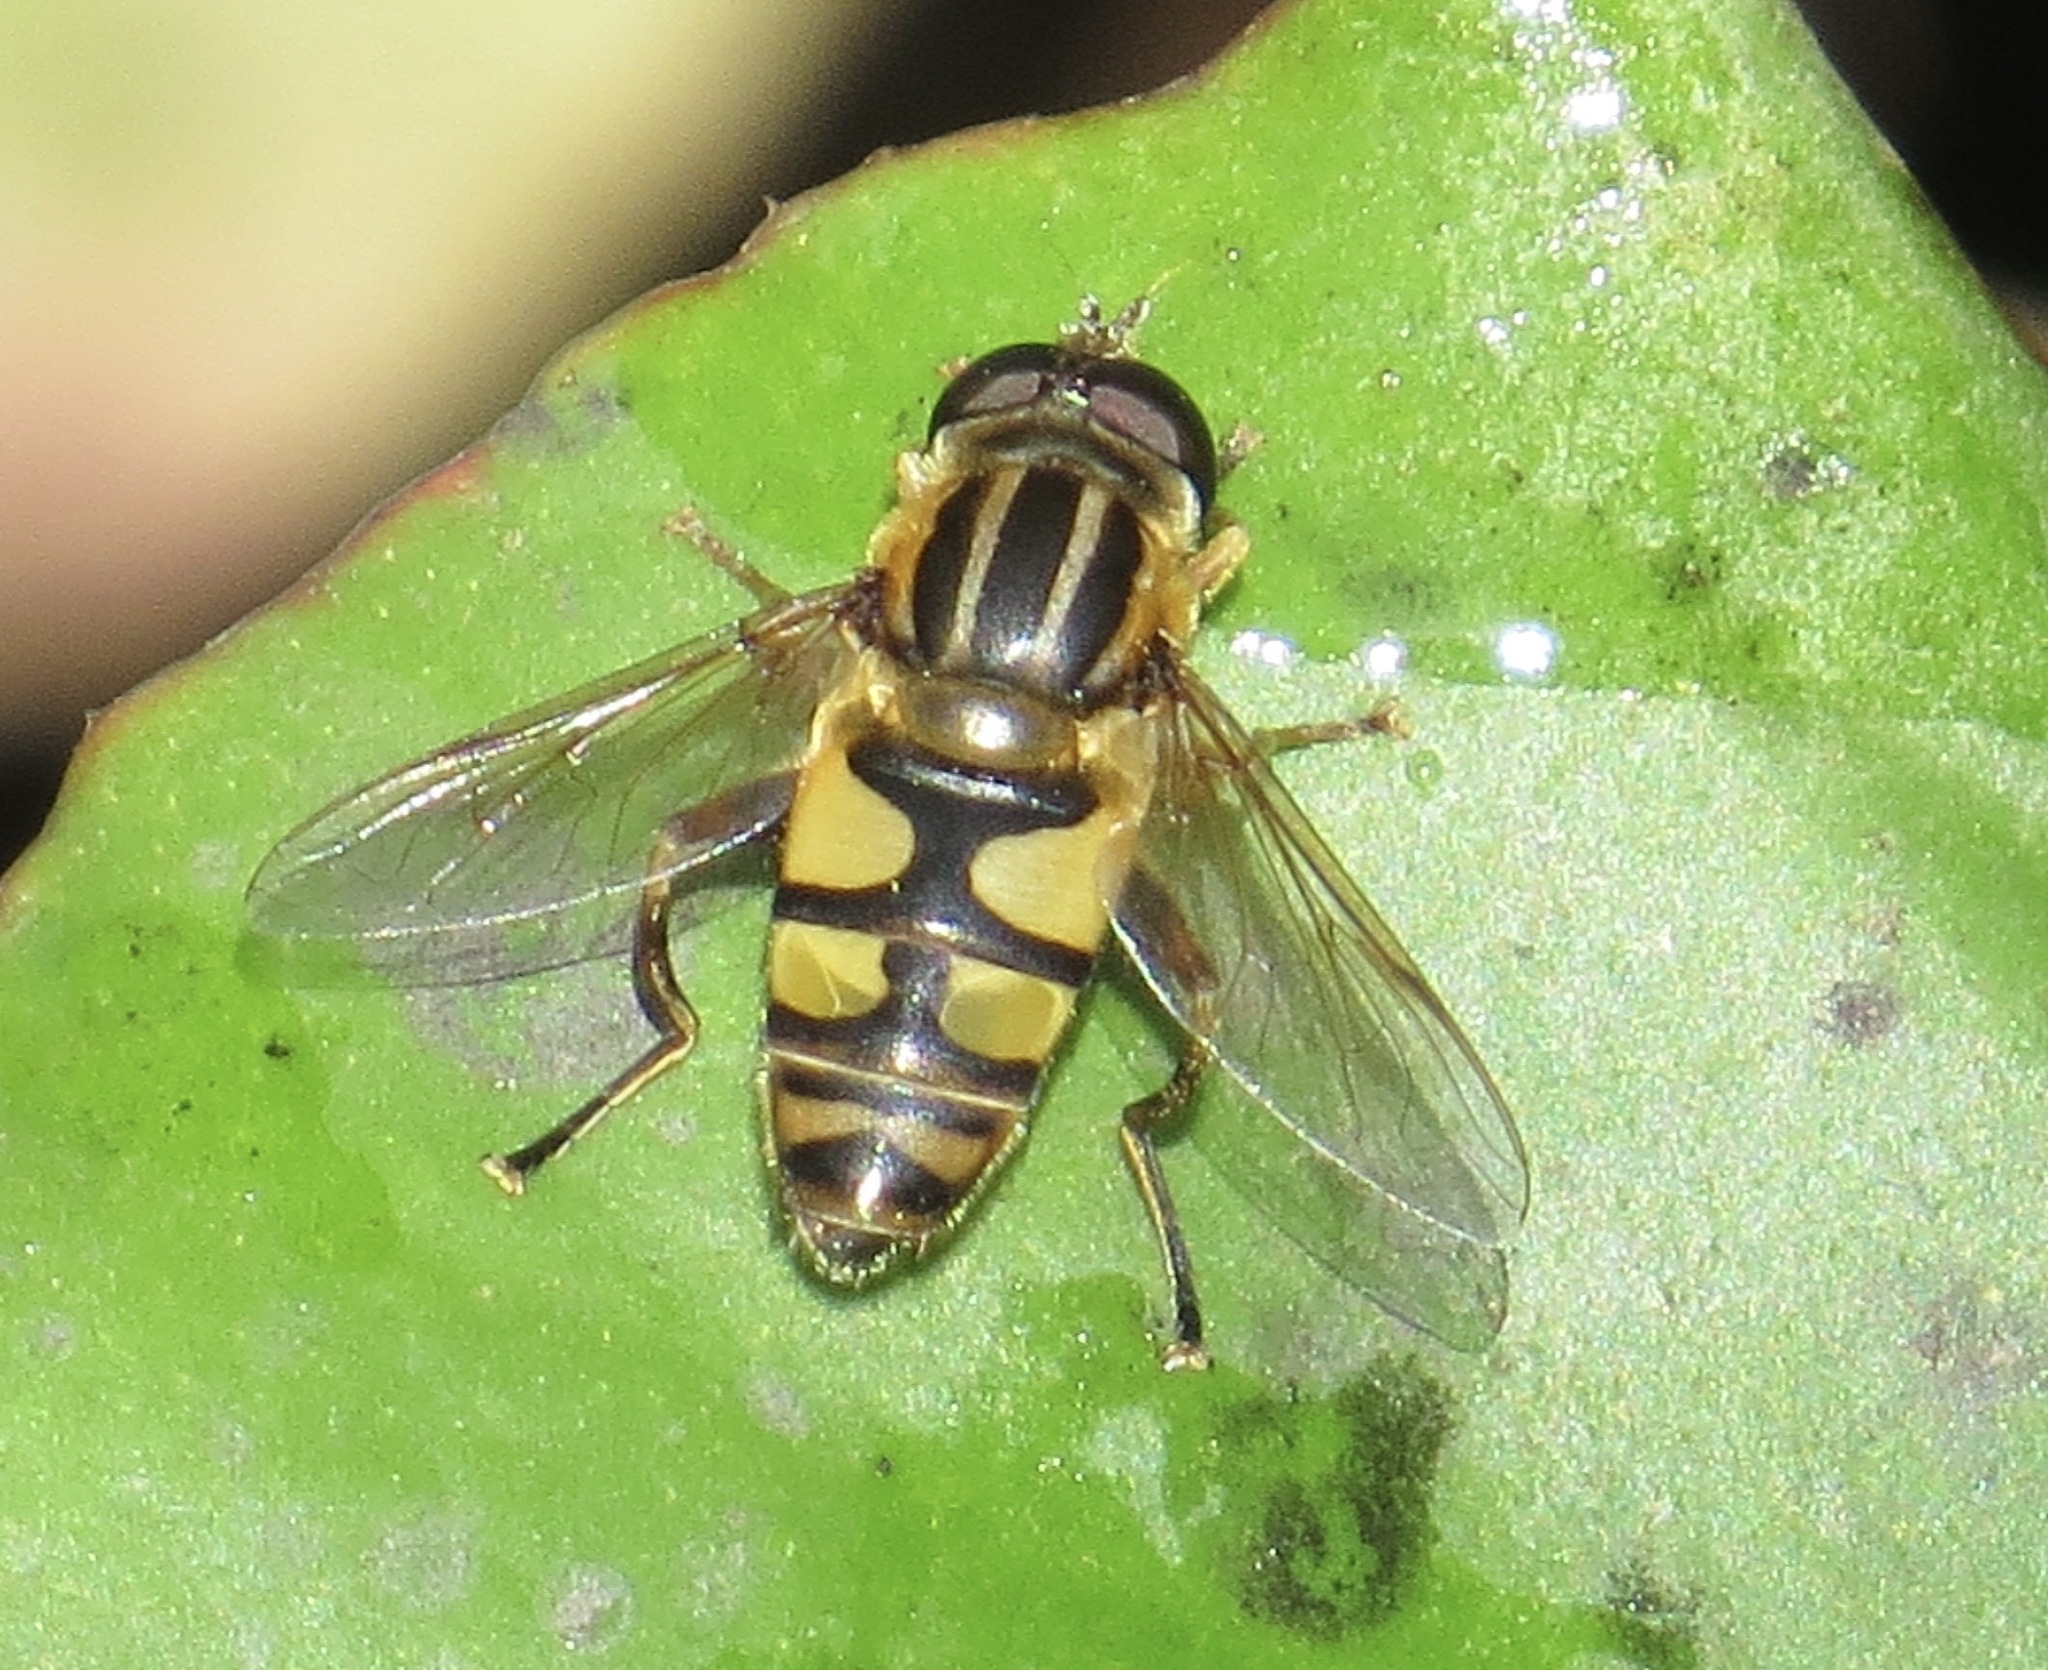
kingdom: Animalia
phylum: Arthropoda
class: Insecta
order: Diptera
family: Syrphidae
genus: Helophilus
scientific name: Helophilus fasciatus
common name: Narrow-headed marsh fly
